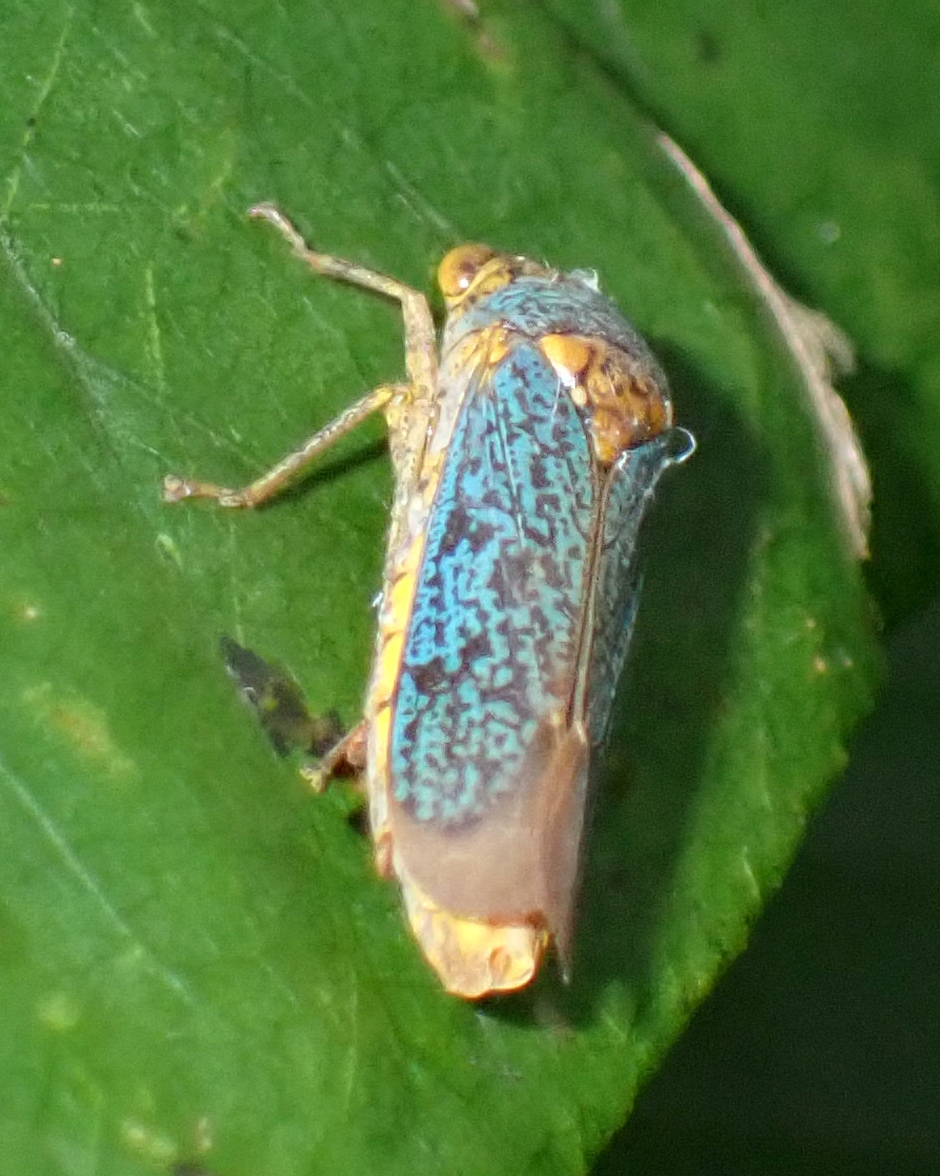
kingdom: Animalia
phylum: Arthropoda
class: Insecta
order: Hemiptera
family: Cicadellidae
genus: Oncometopia
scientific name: Oncometopia orbona
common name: Broad-headed sharpshooter
